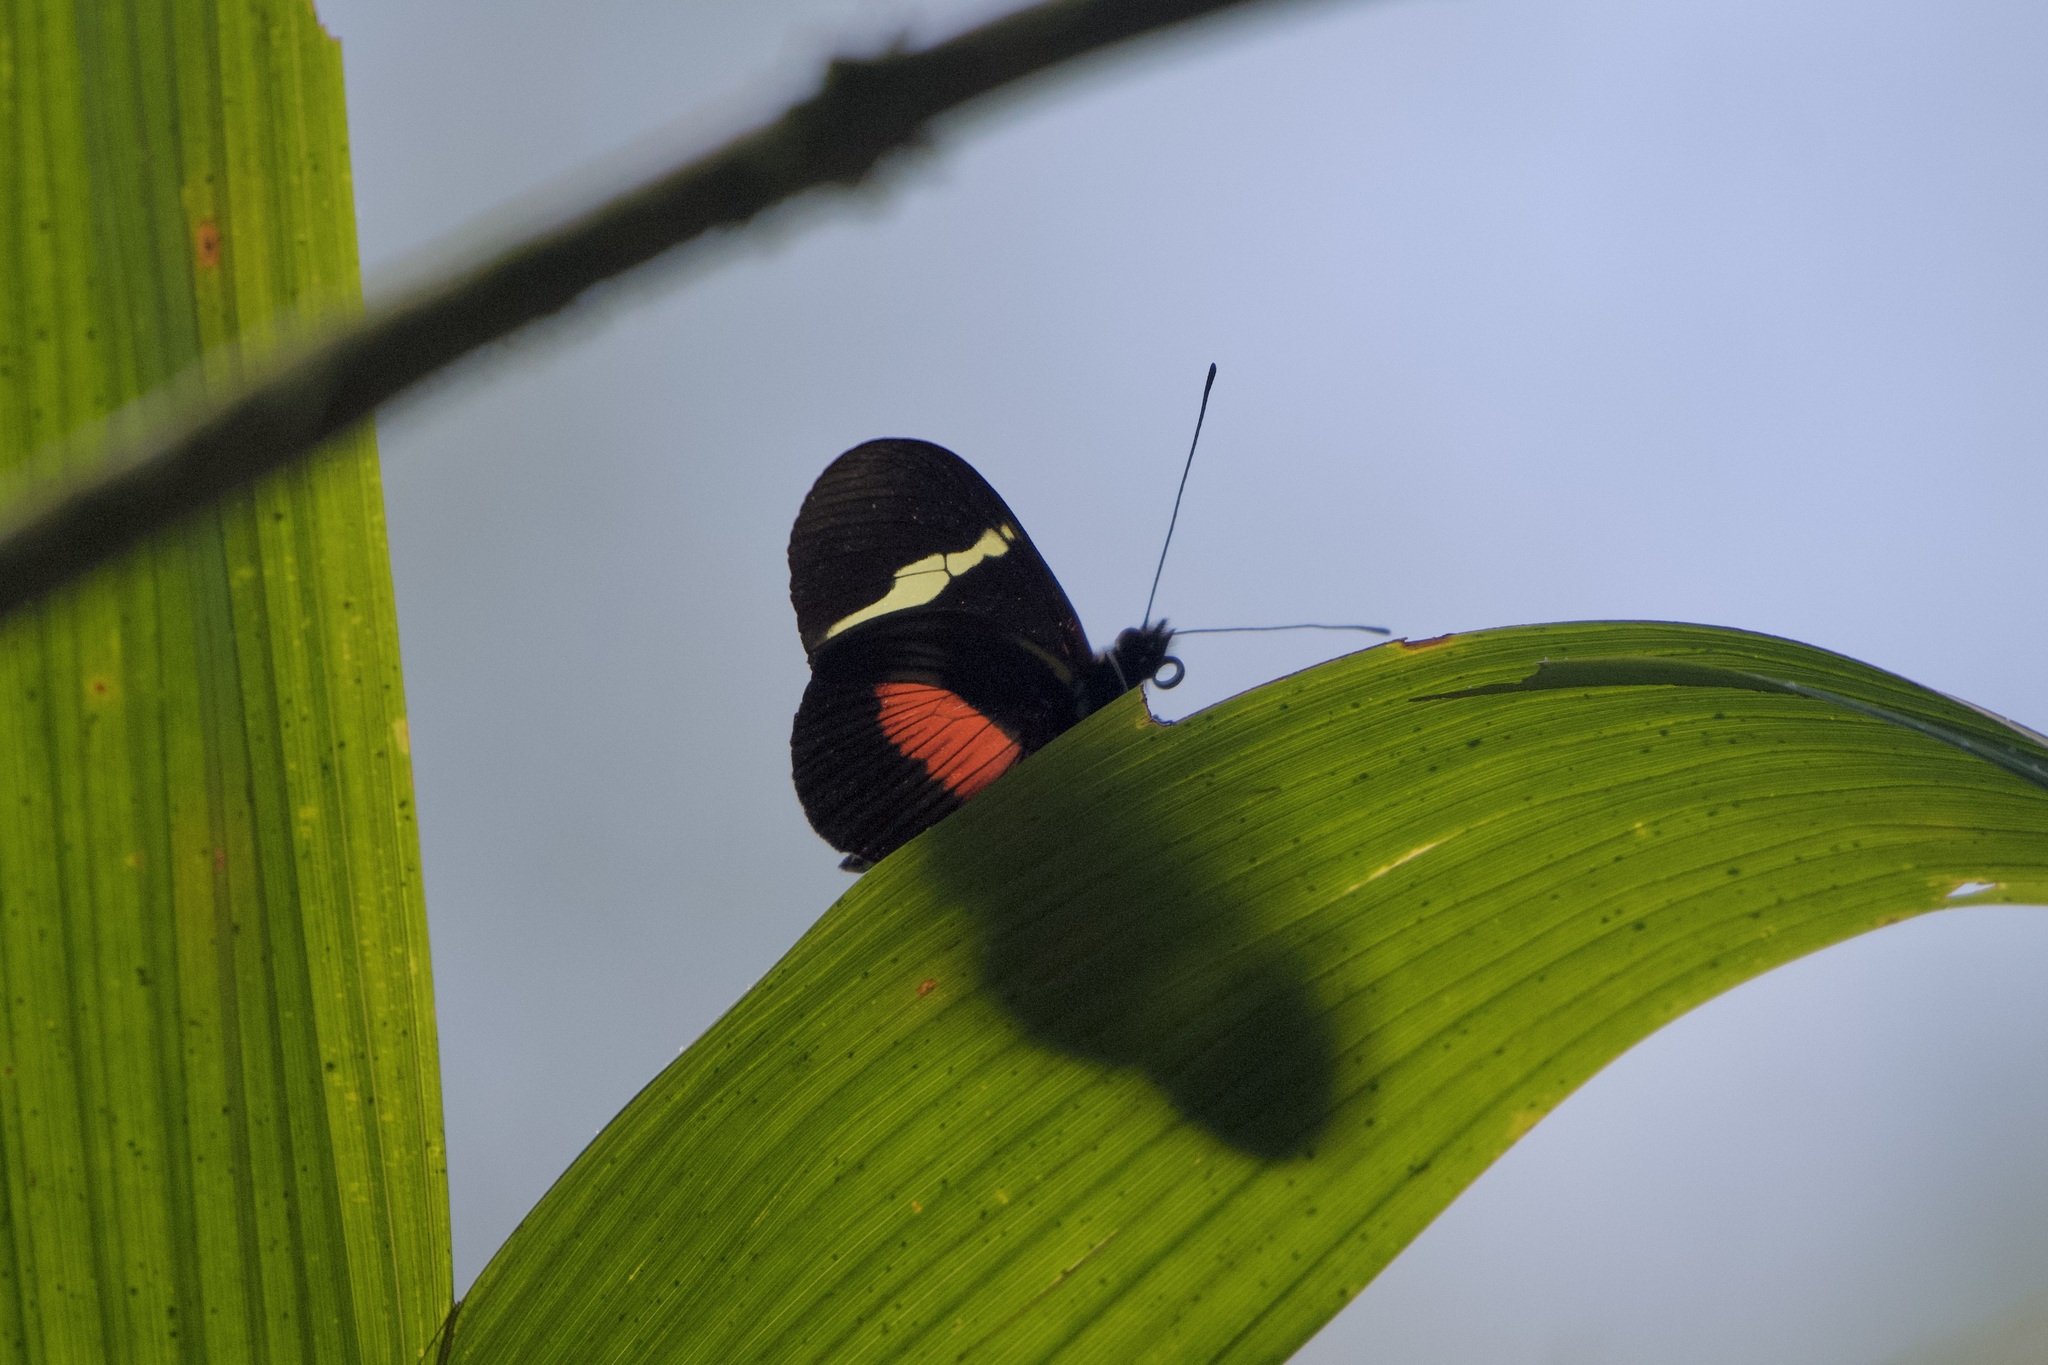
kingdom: Animalia
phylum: Arthropoda
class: Insecta
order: Lepidoptera
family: Nymphalidae
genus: Heliconius
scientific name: Heliconius clysonymus
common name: Clysonymus longwing
